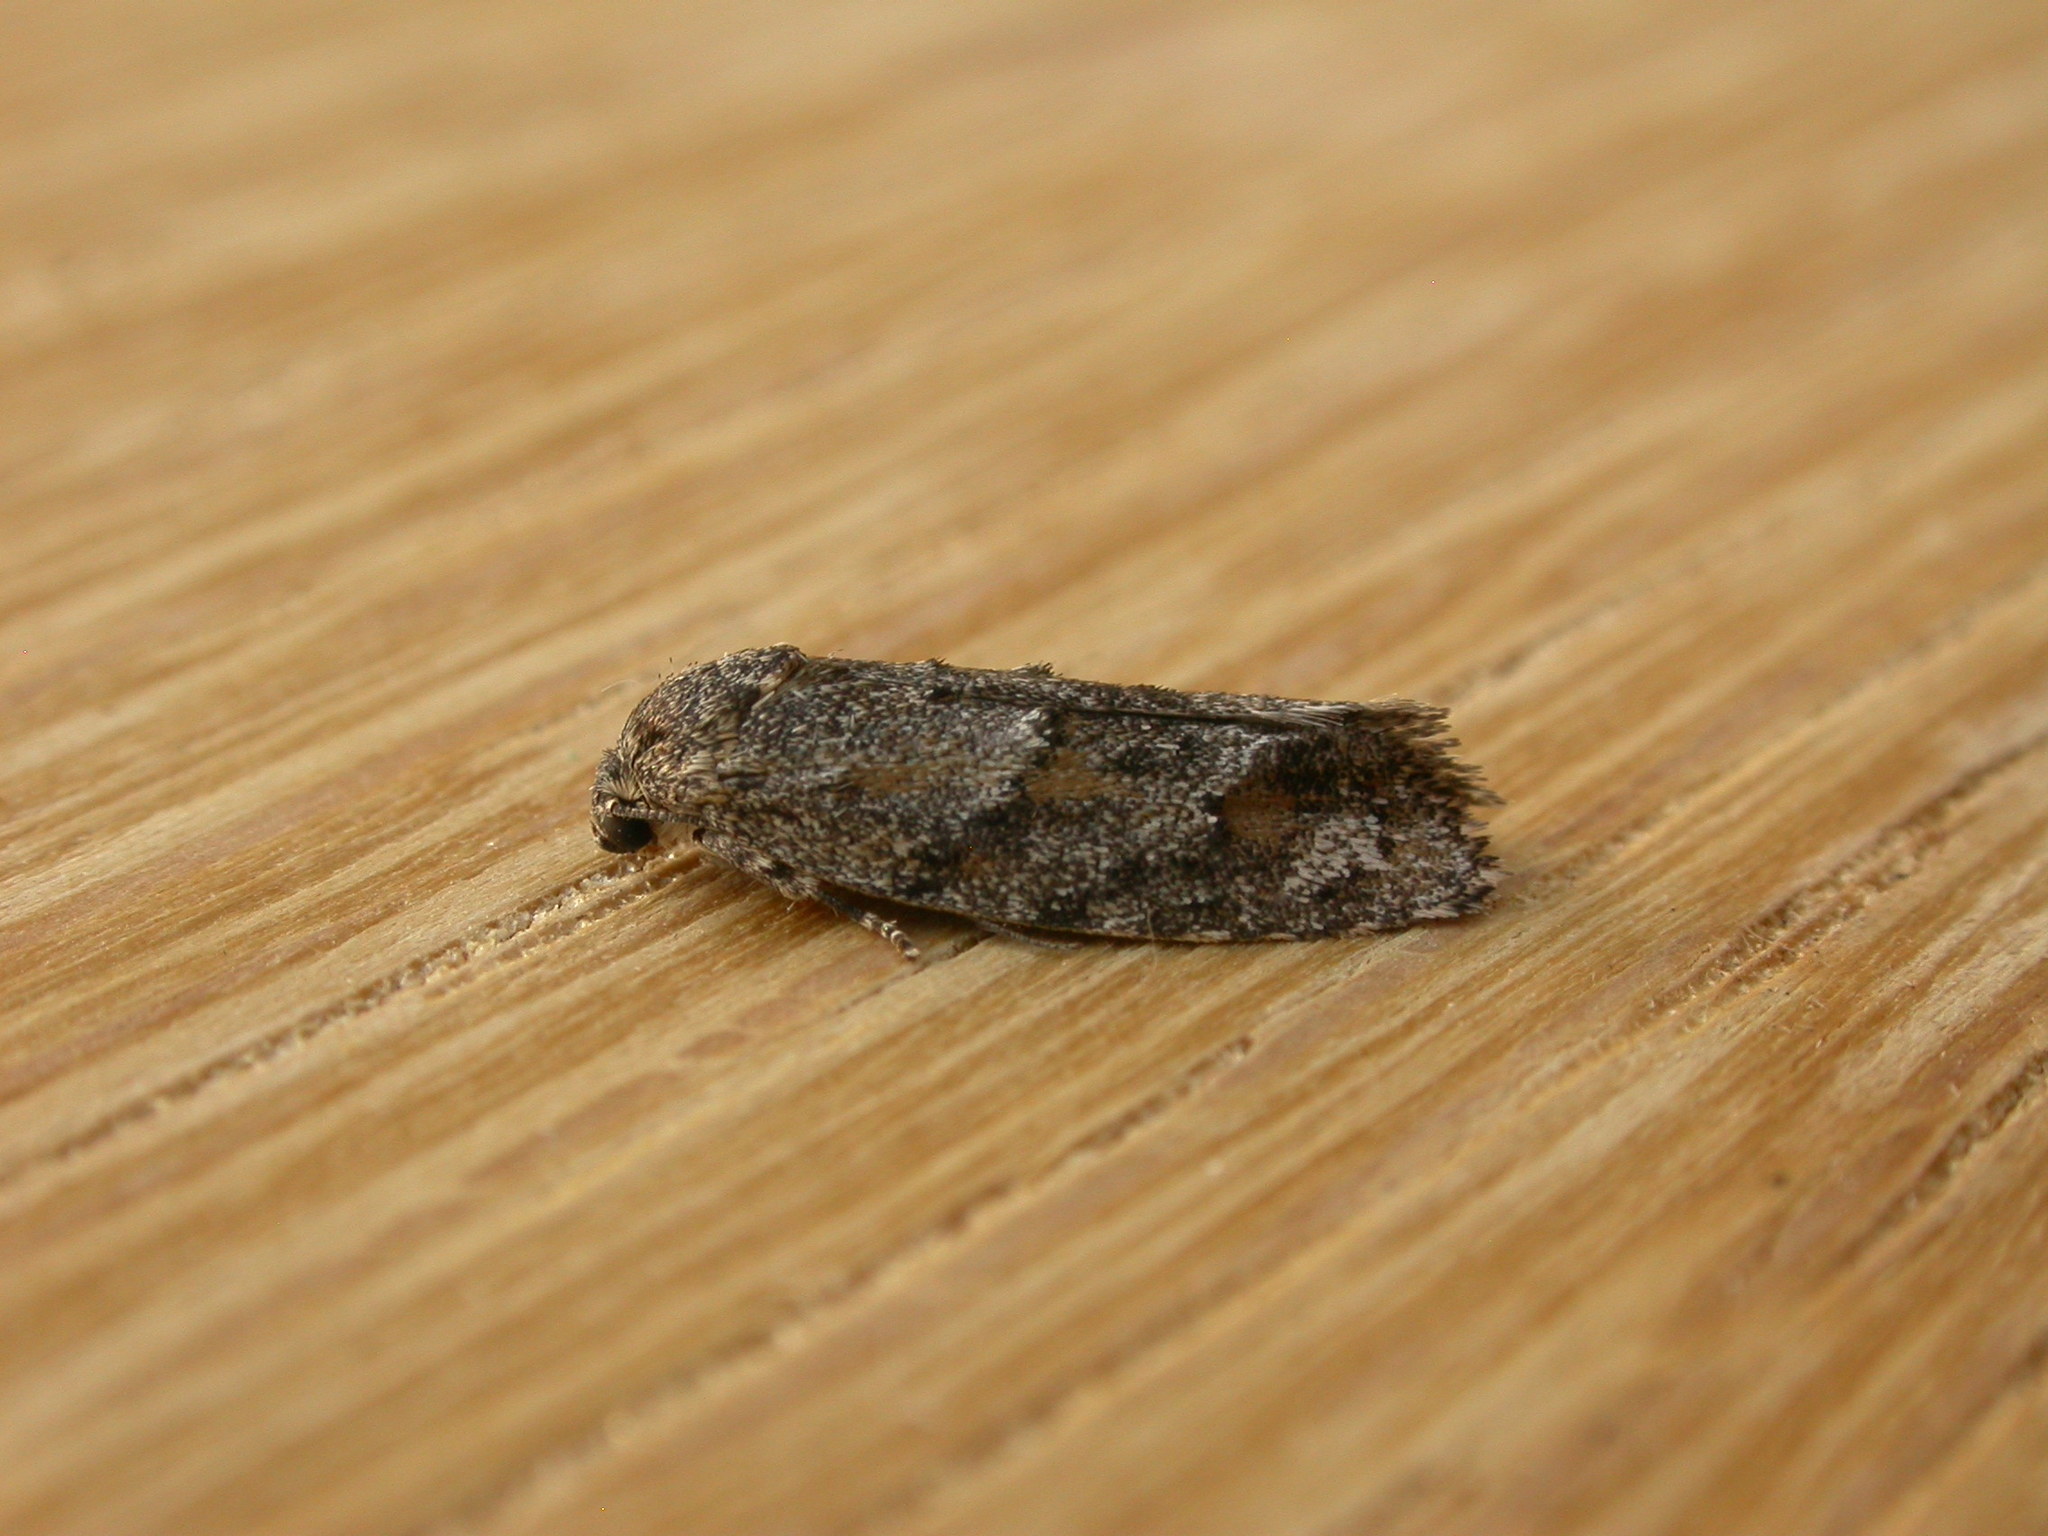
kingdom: Animalia
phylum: Arthropoda
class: Insecta
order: Lepidoptera
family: Depressariidae
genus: Agriophara
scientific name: Agriophara nodigera
